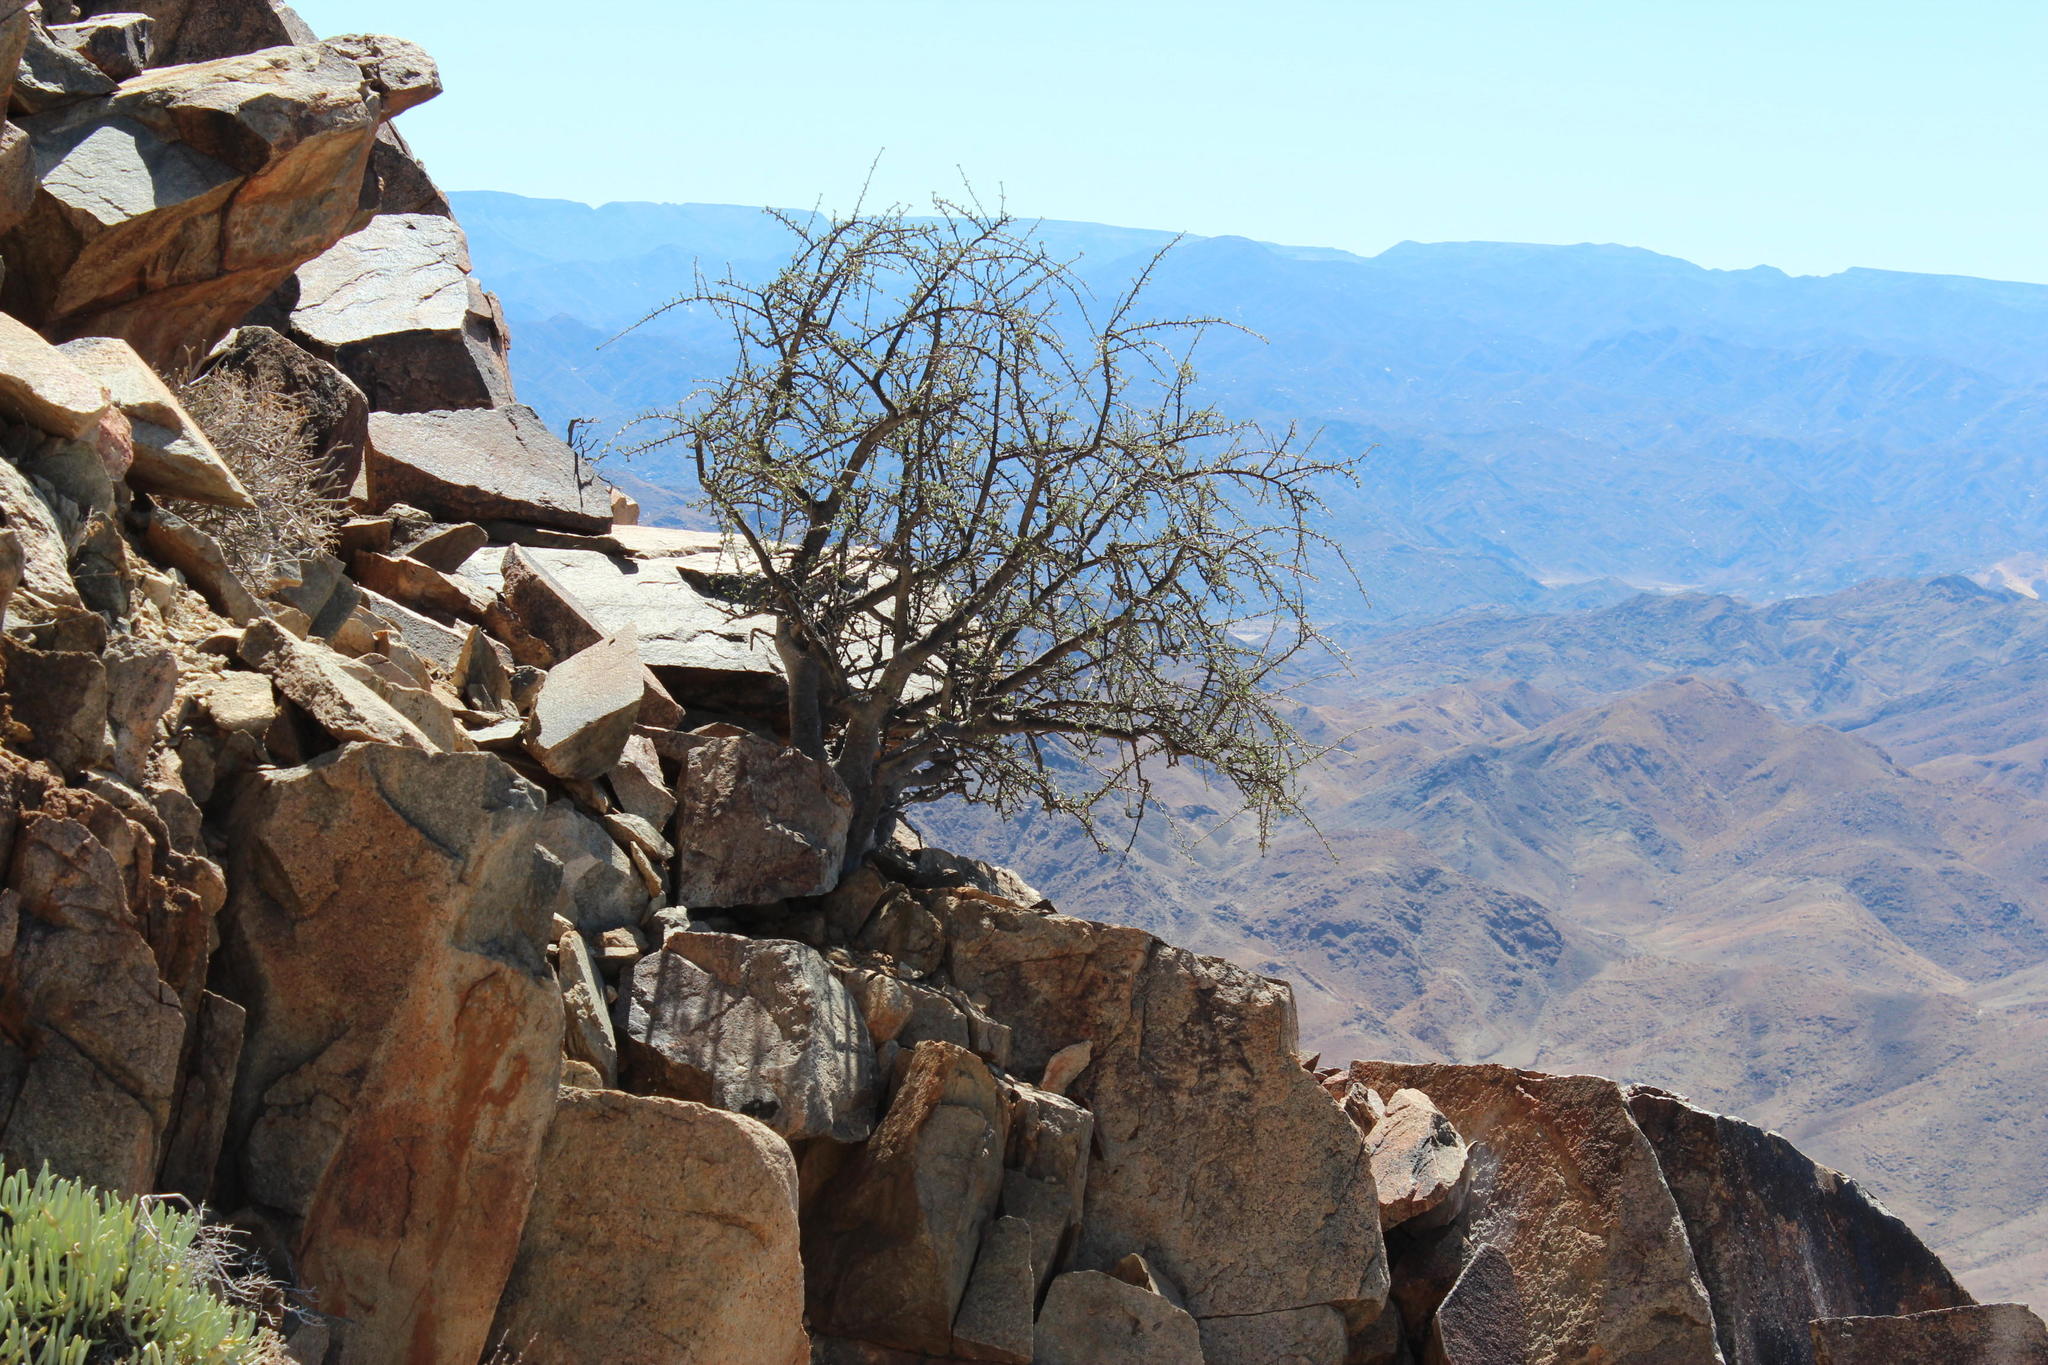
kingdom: Plantae
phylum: Tracheophyta
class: Magnoliopsida
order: Caryophyllales
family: Didiereaceae
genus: Portulacaria
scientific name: Portulacaria fruticulosa
